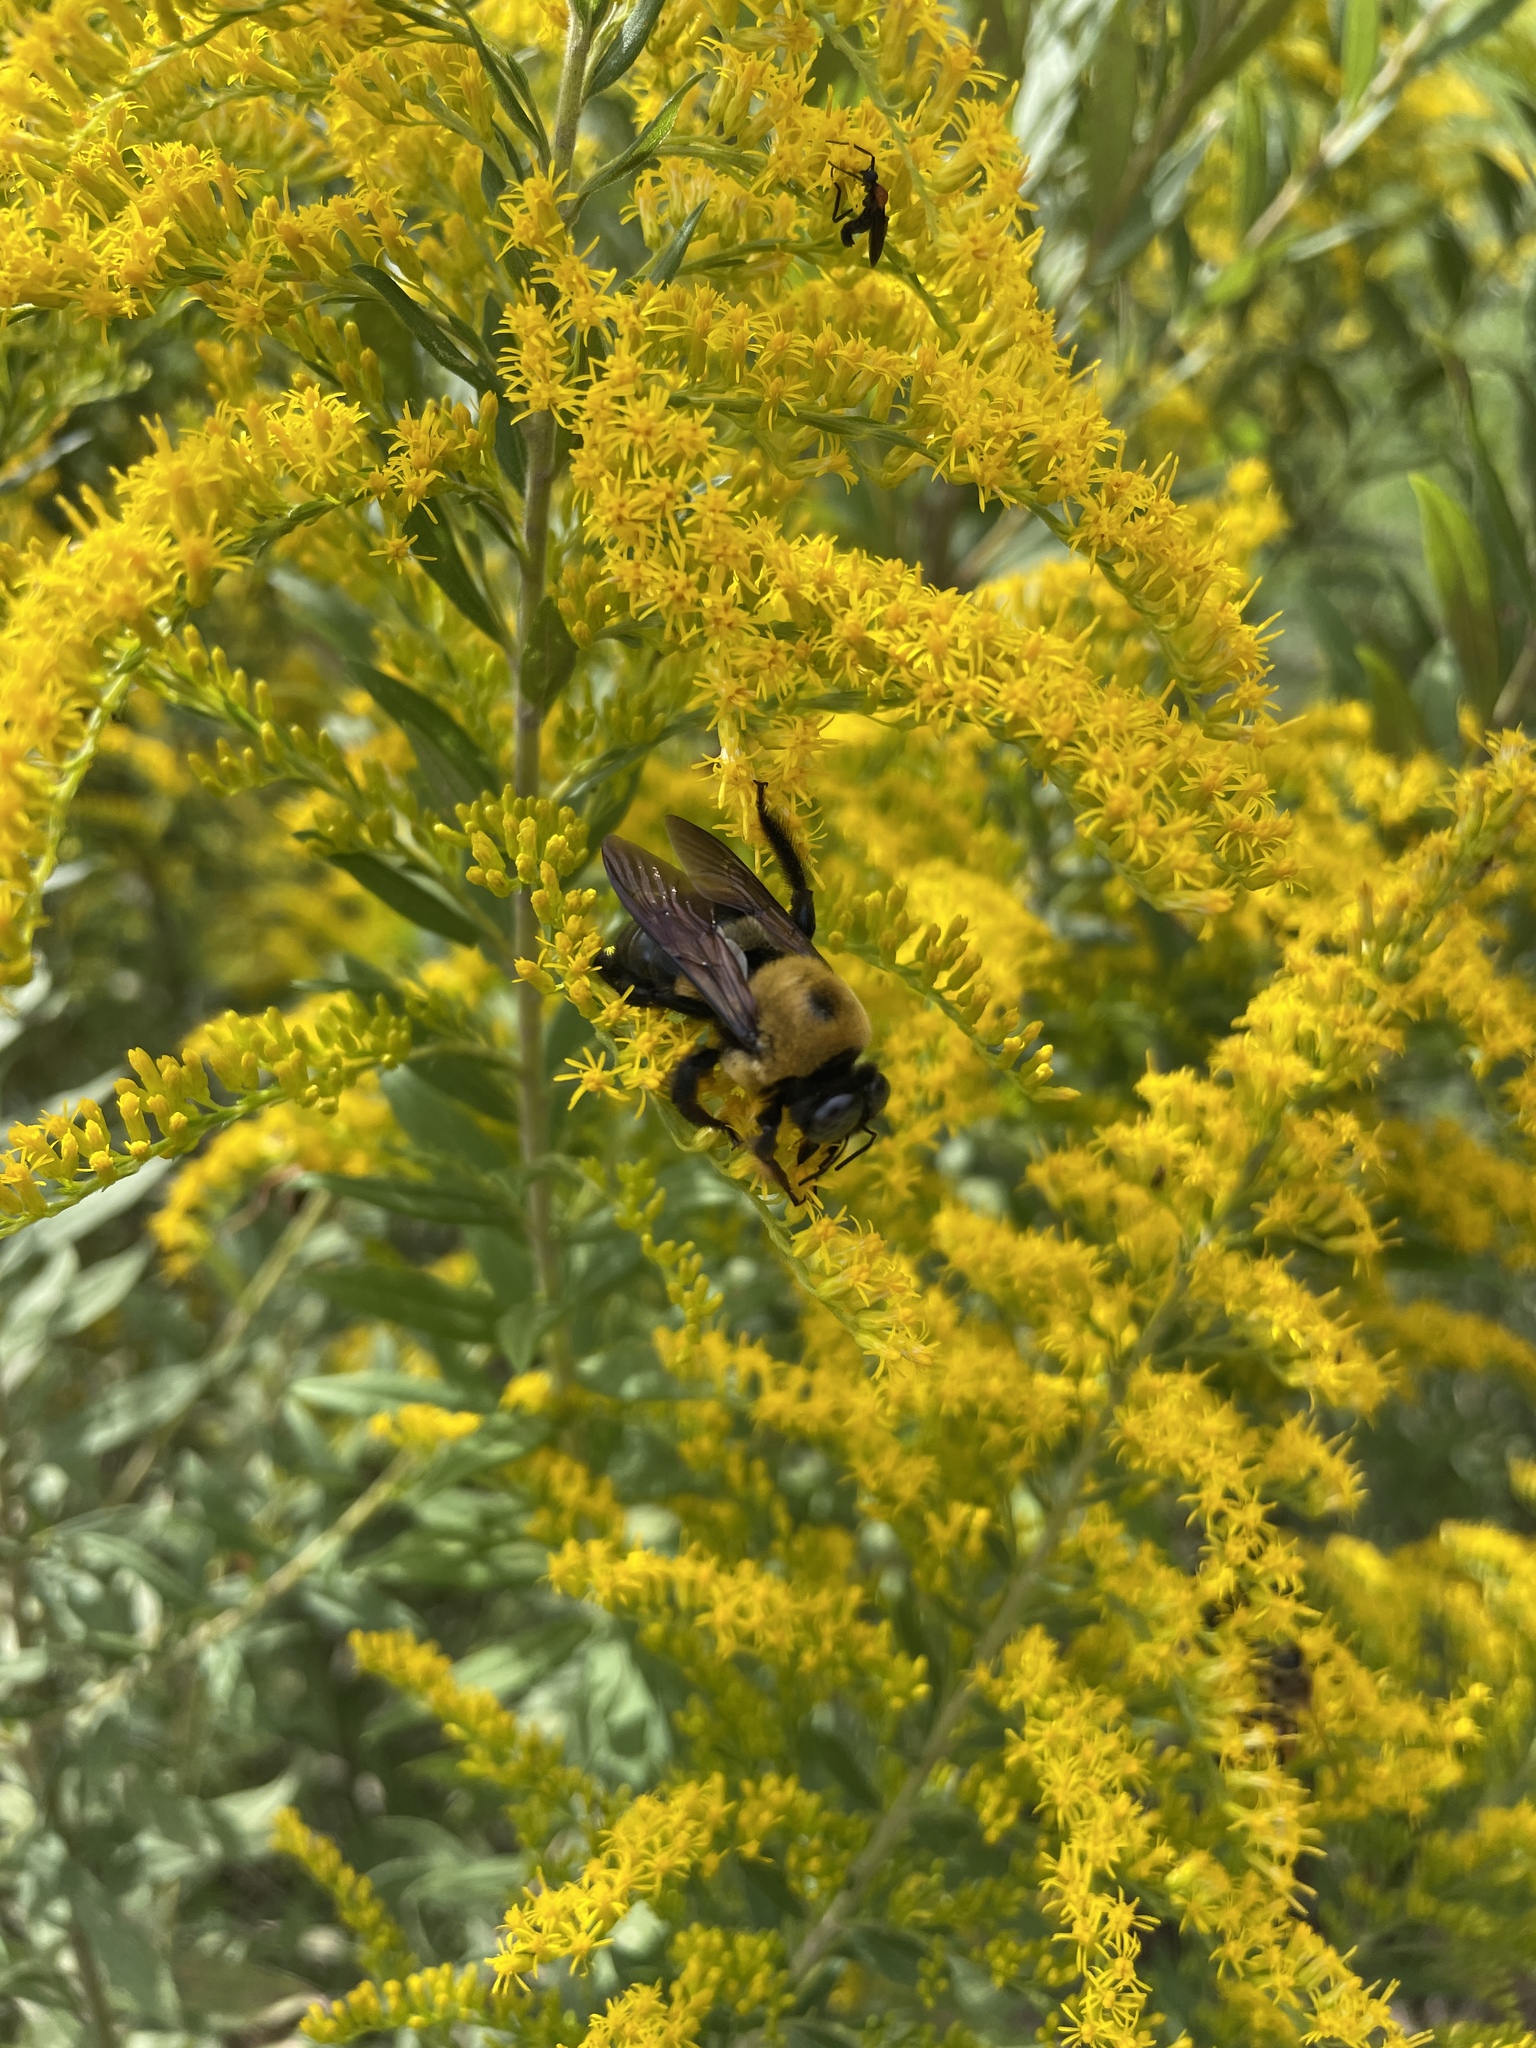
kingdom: Animalia
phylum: Arthropoda
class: Insecta
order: Hymenoptera
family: Apidae
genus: Xylocopa
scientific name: Xylocopa virginica
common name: Carpenter bee
